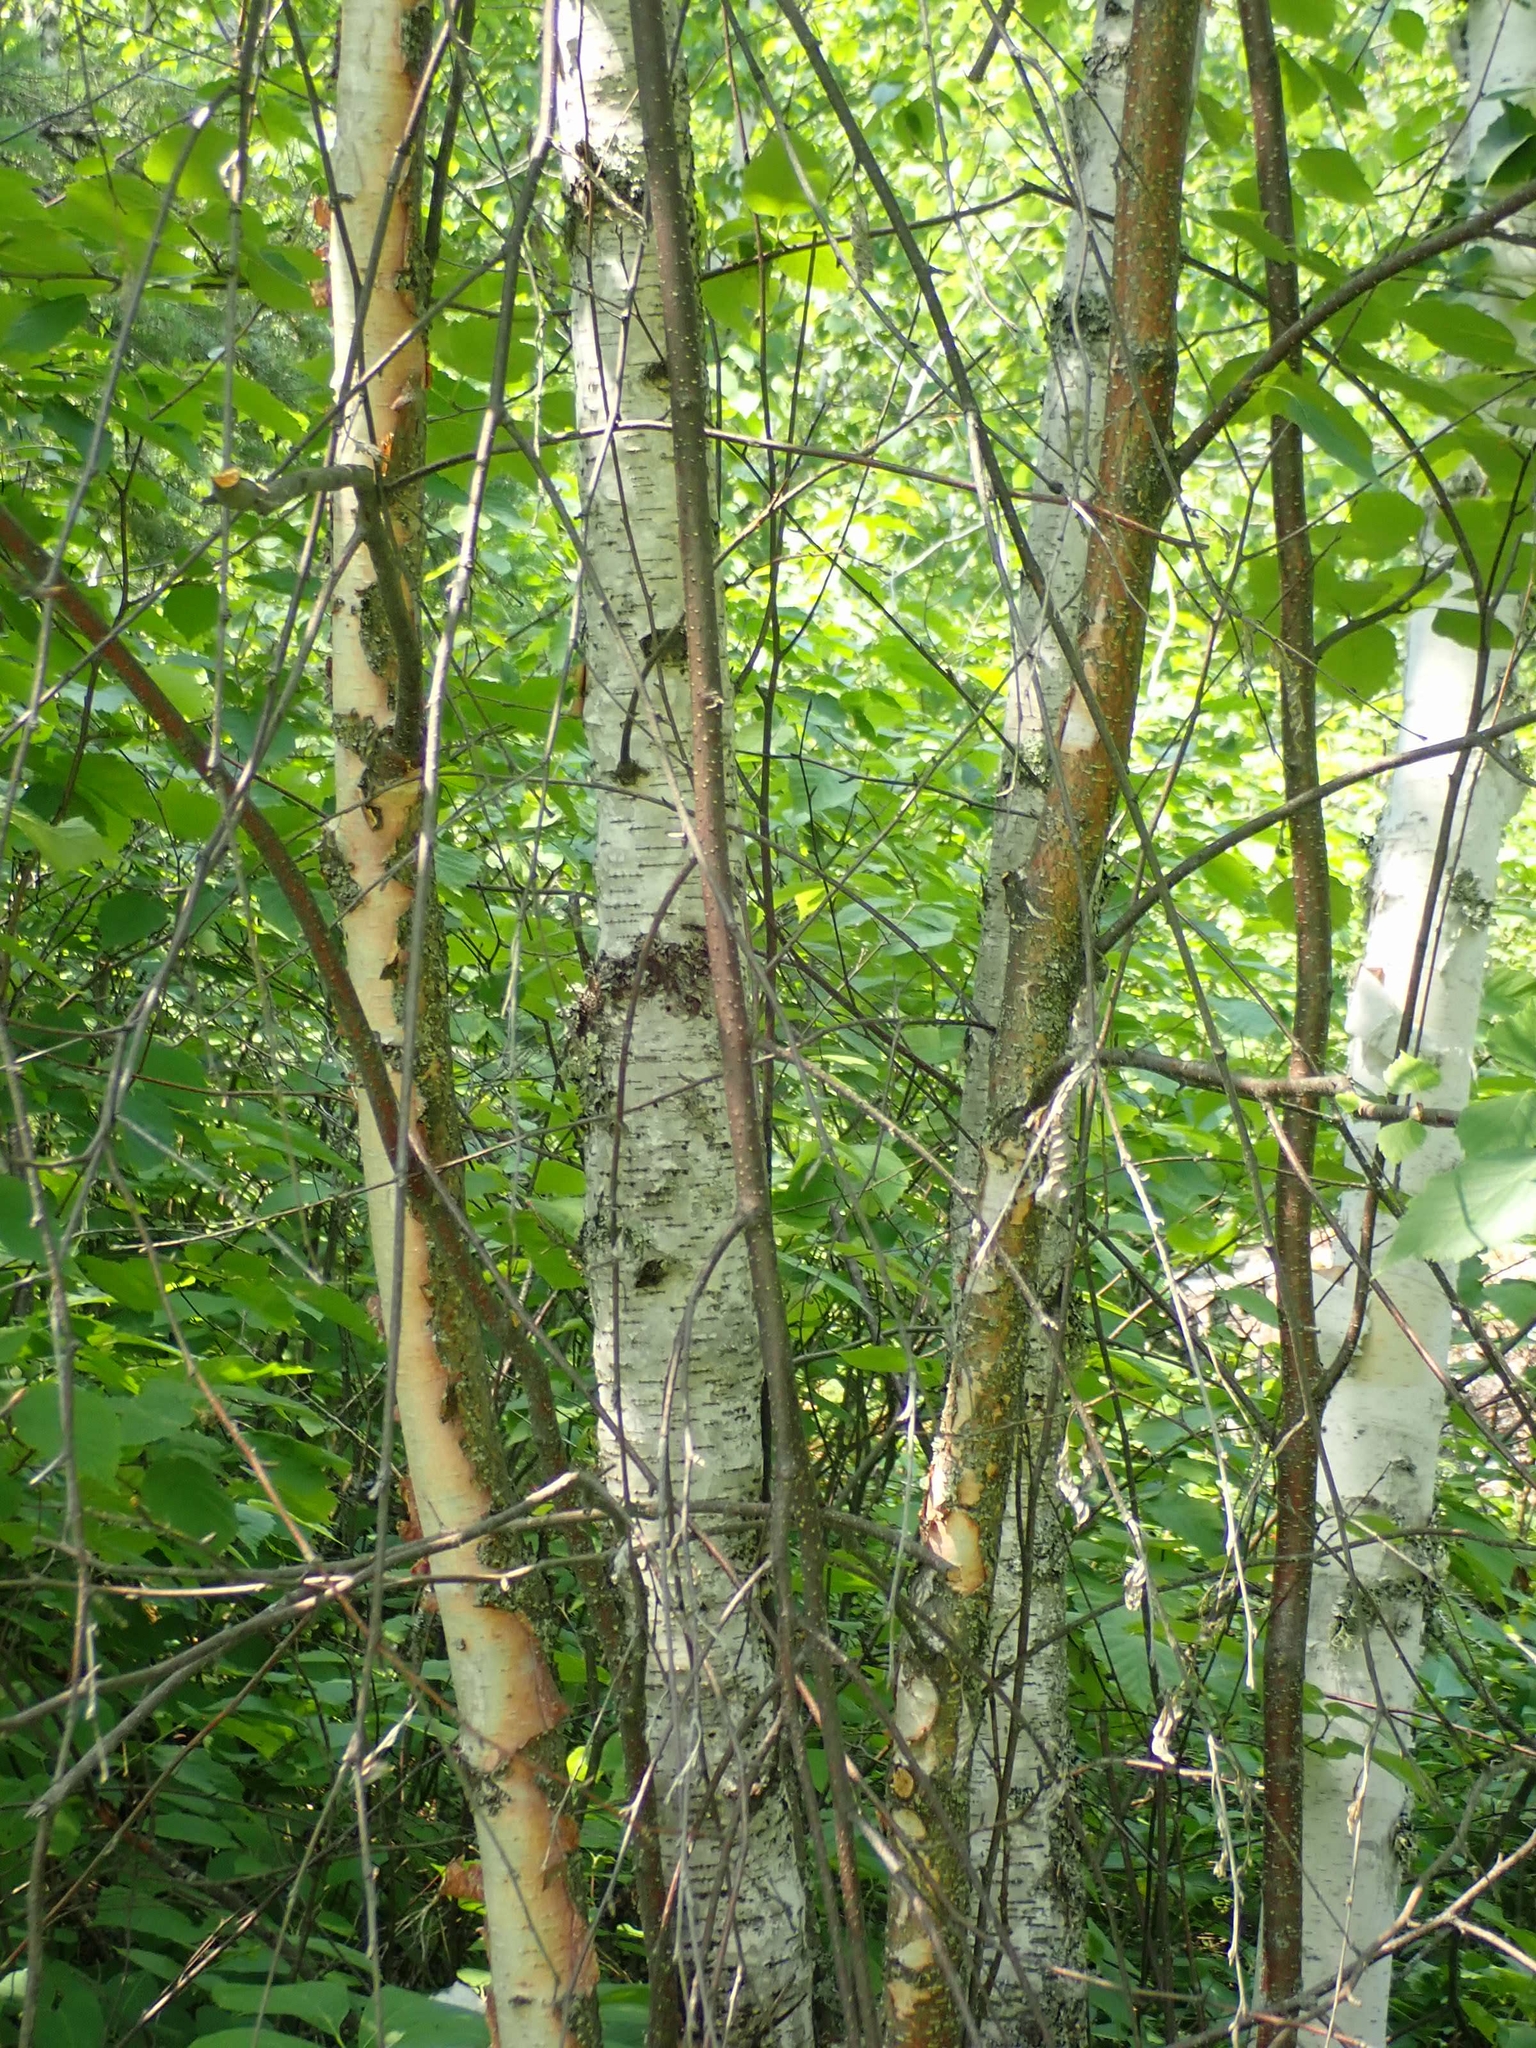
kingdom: Plantae
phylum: Tracheophyta
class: Magnoliopsida
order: Fagales
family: Betulaceae
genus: Betula
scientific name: Betula papyrifera
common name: Paper birch
